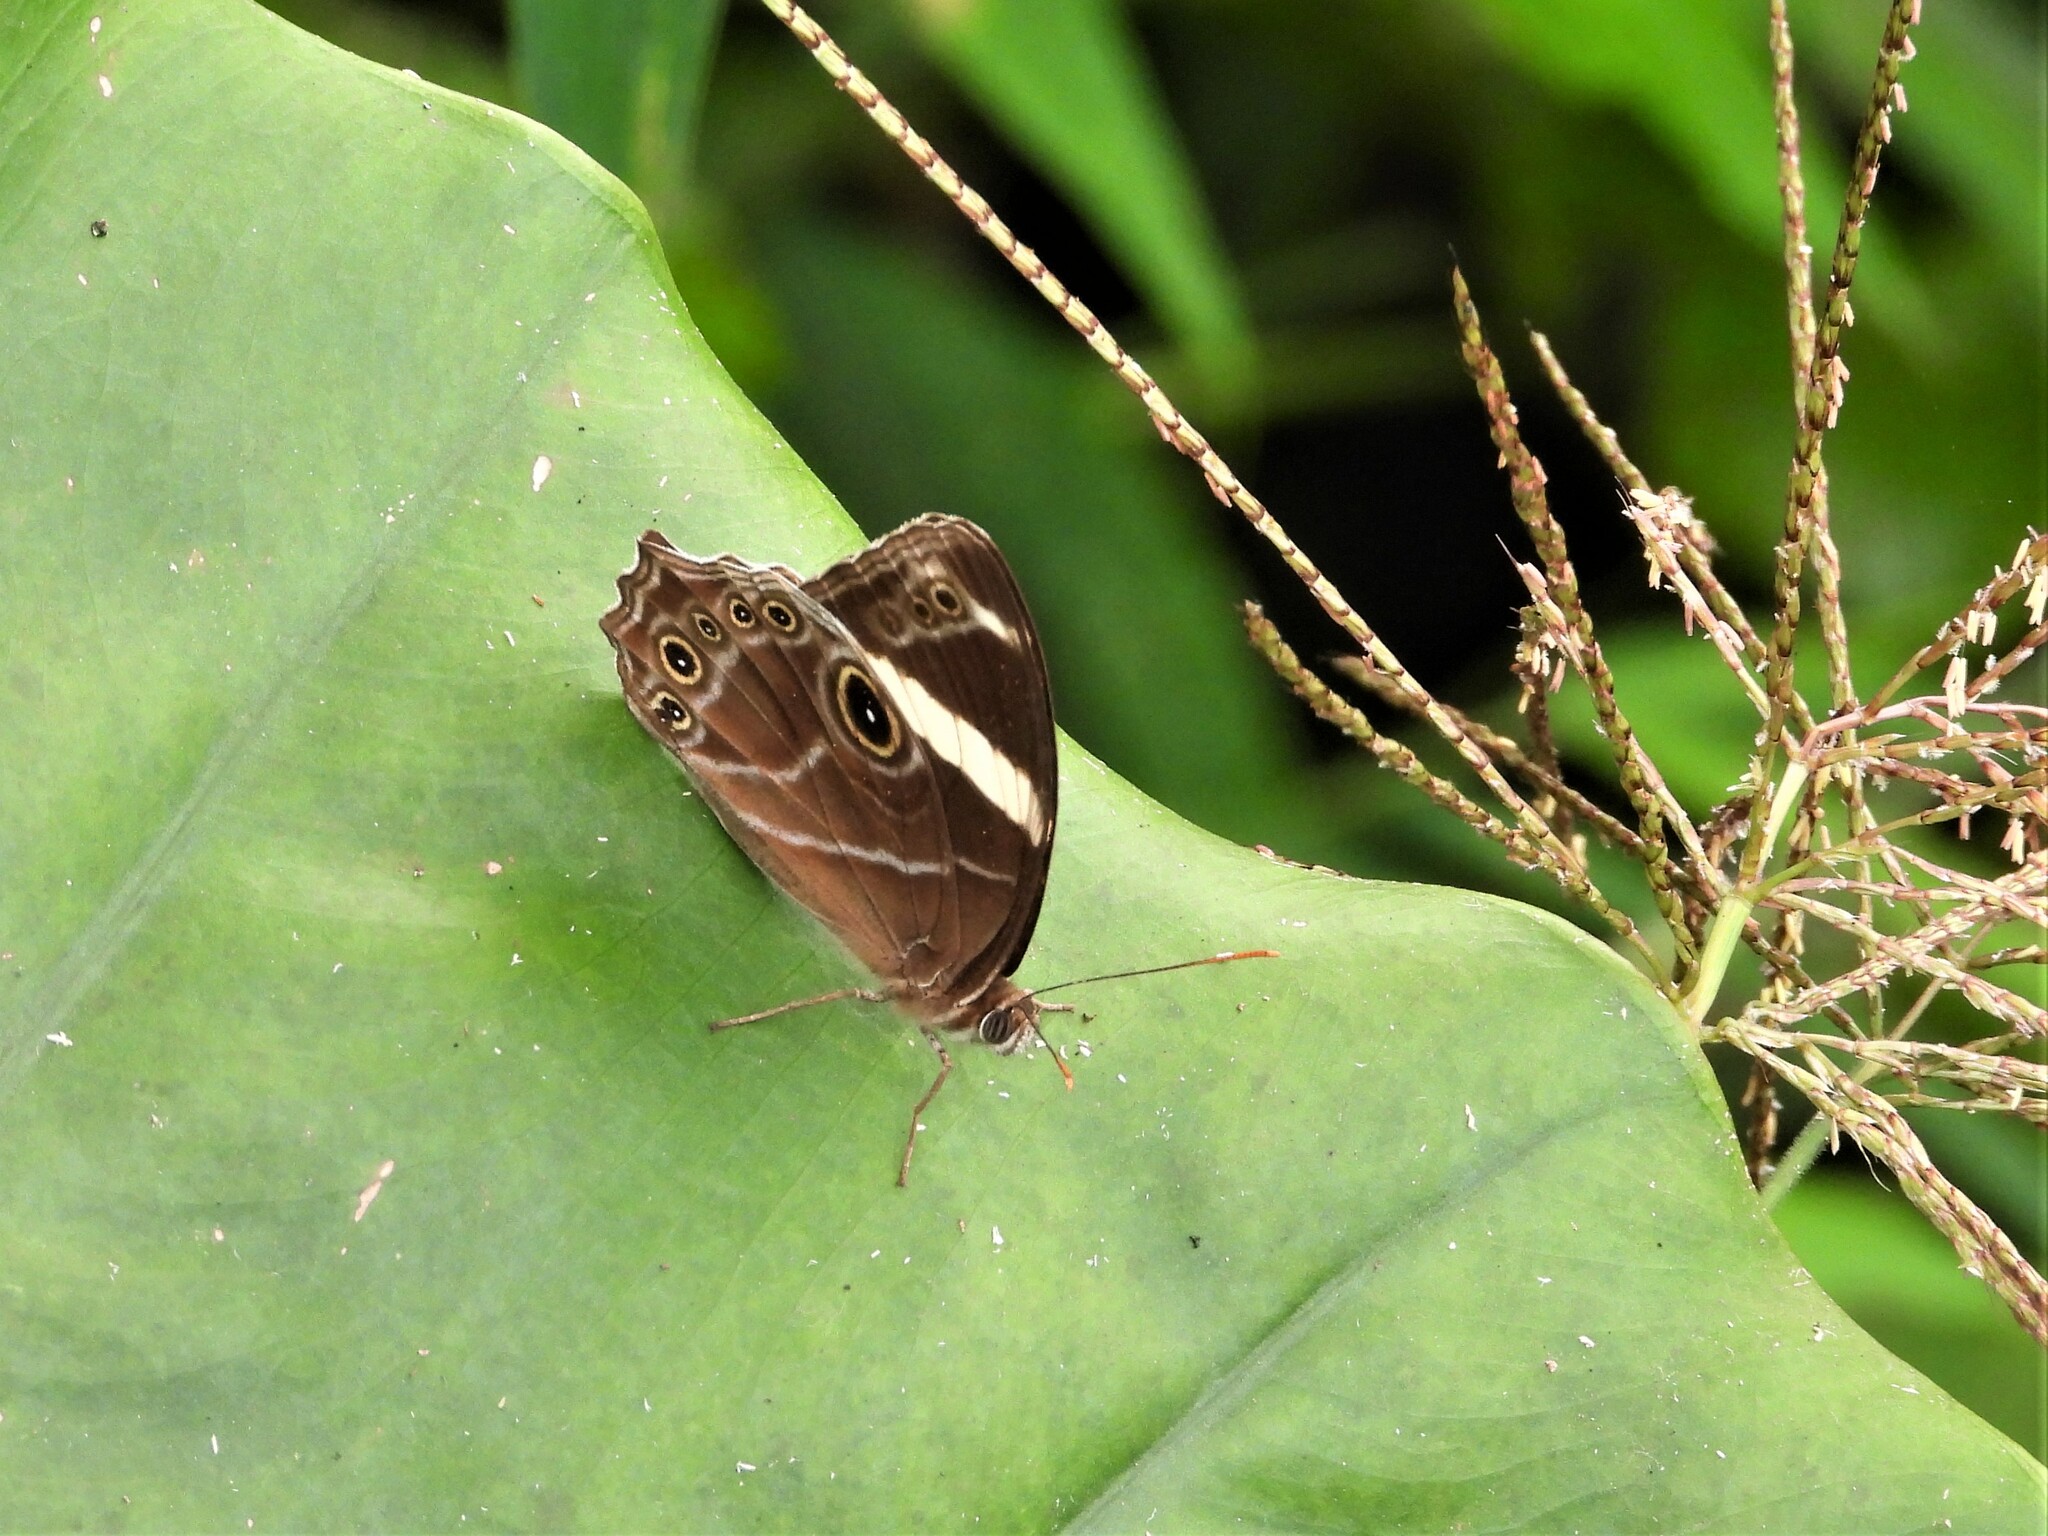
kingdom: Animalia
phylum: Arthropoda
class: Insecta
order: Lepidoptera
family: Nymphalidae
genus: Lethe
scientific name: Lethe confusa
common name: Banded treebrown
